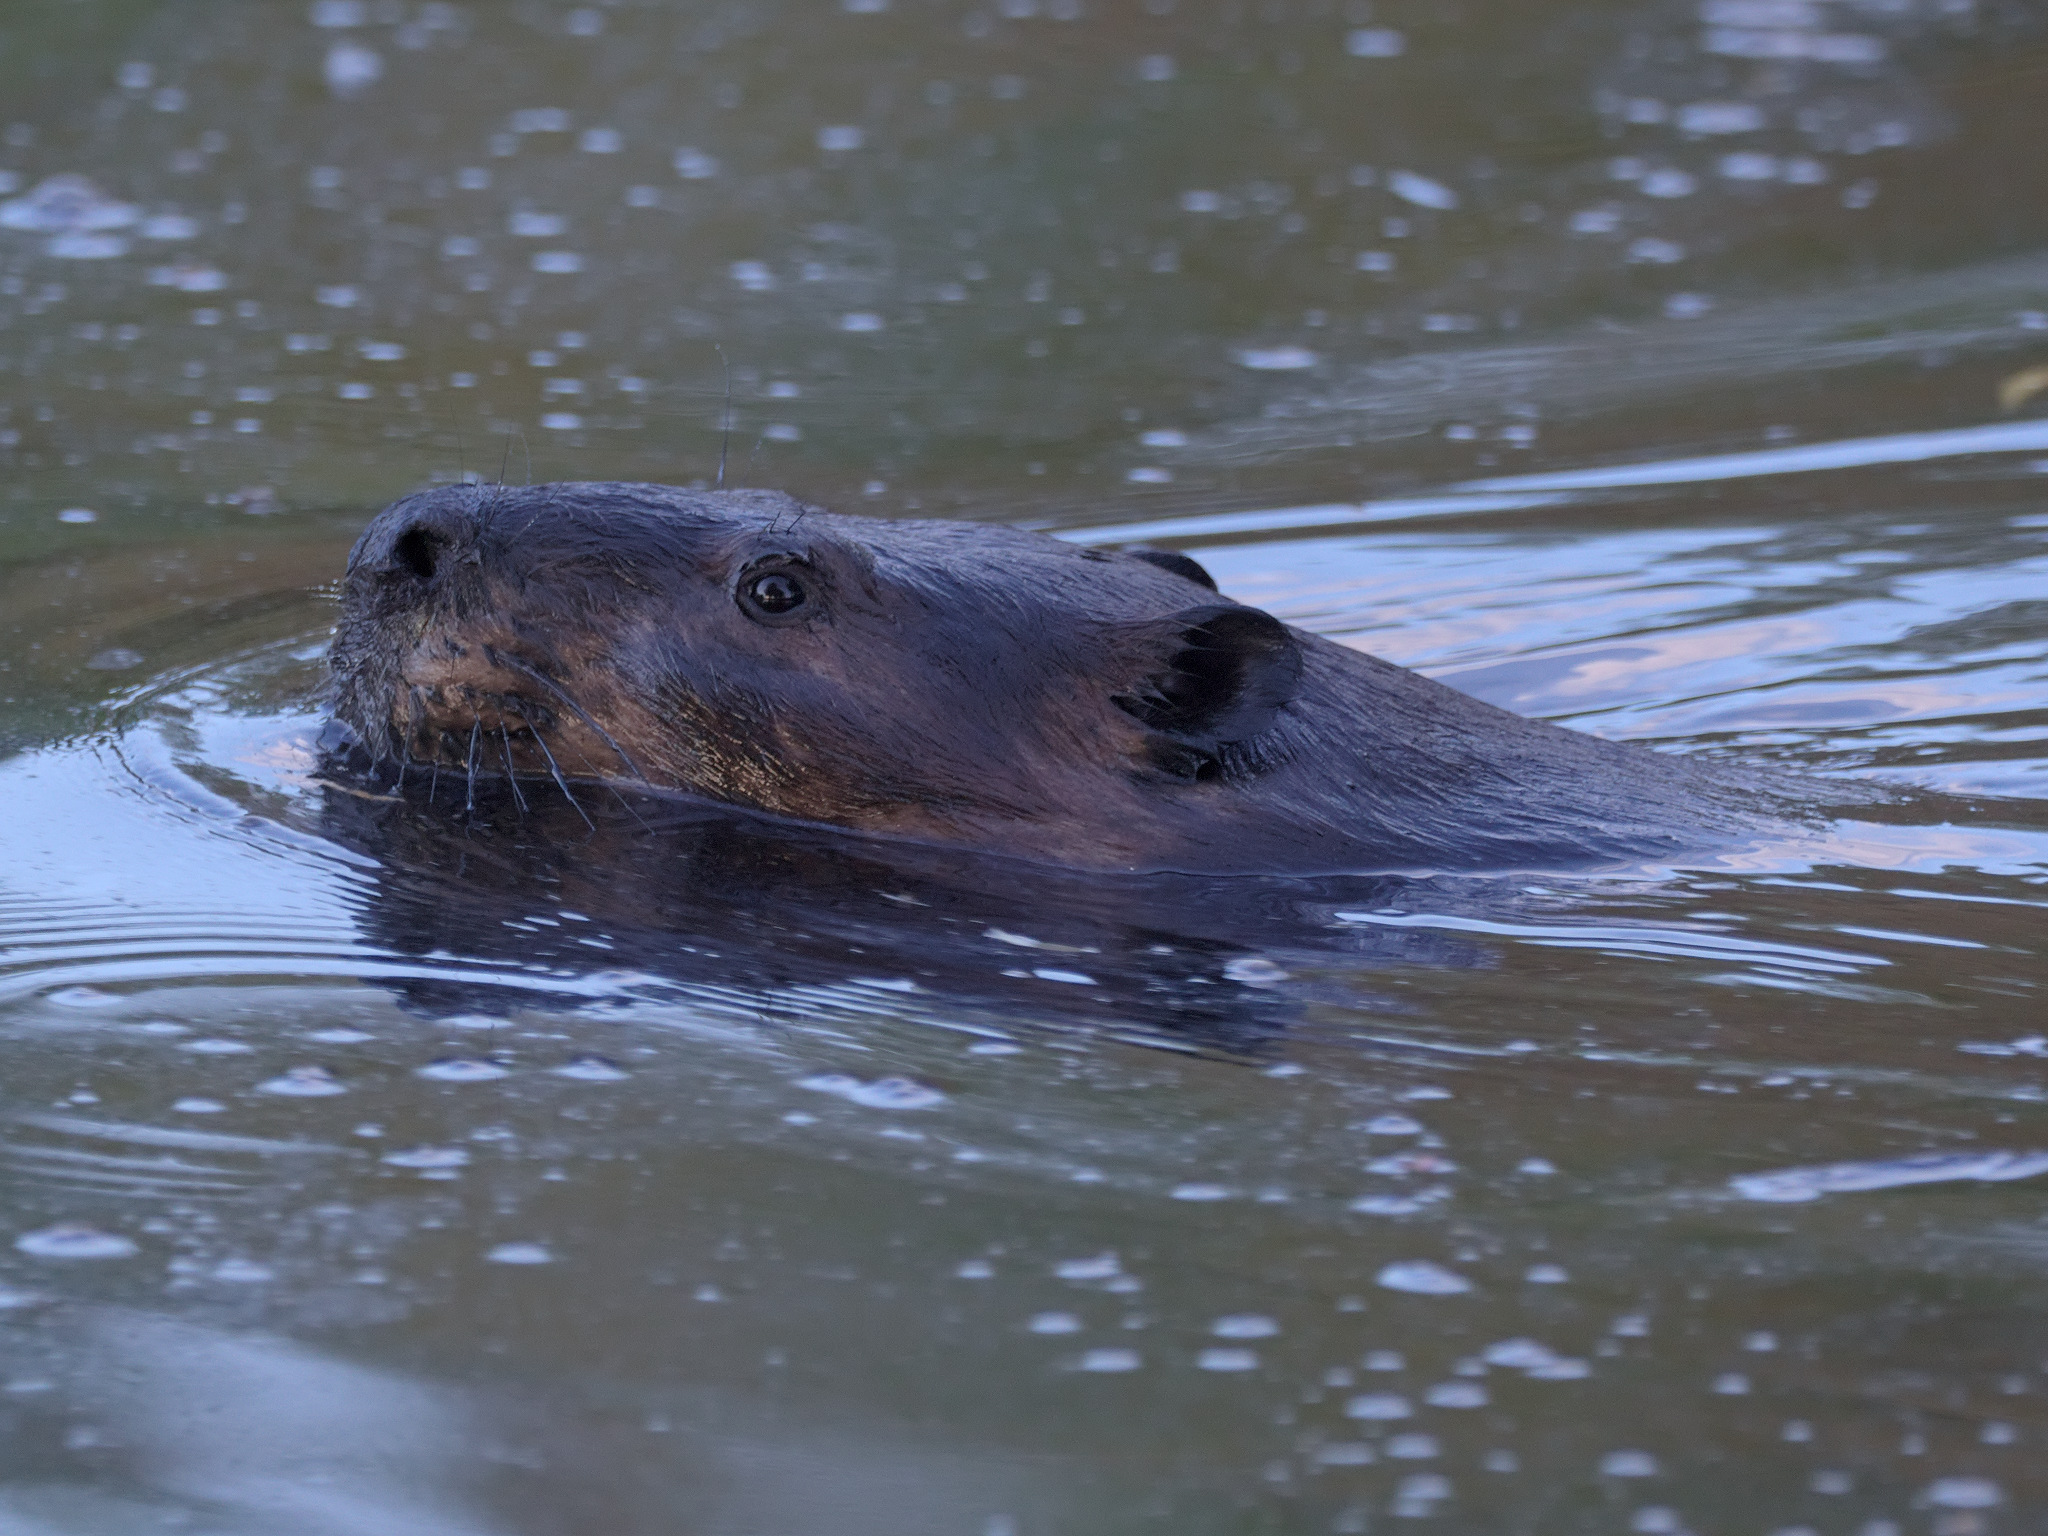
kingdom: Animalia
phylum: Chordata
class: Mammalia
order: Rodentia
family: Castoridae
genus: Castor
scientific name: Castor canadensis
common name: American beaver
